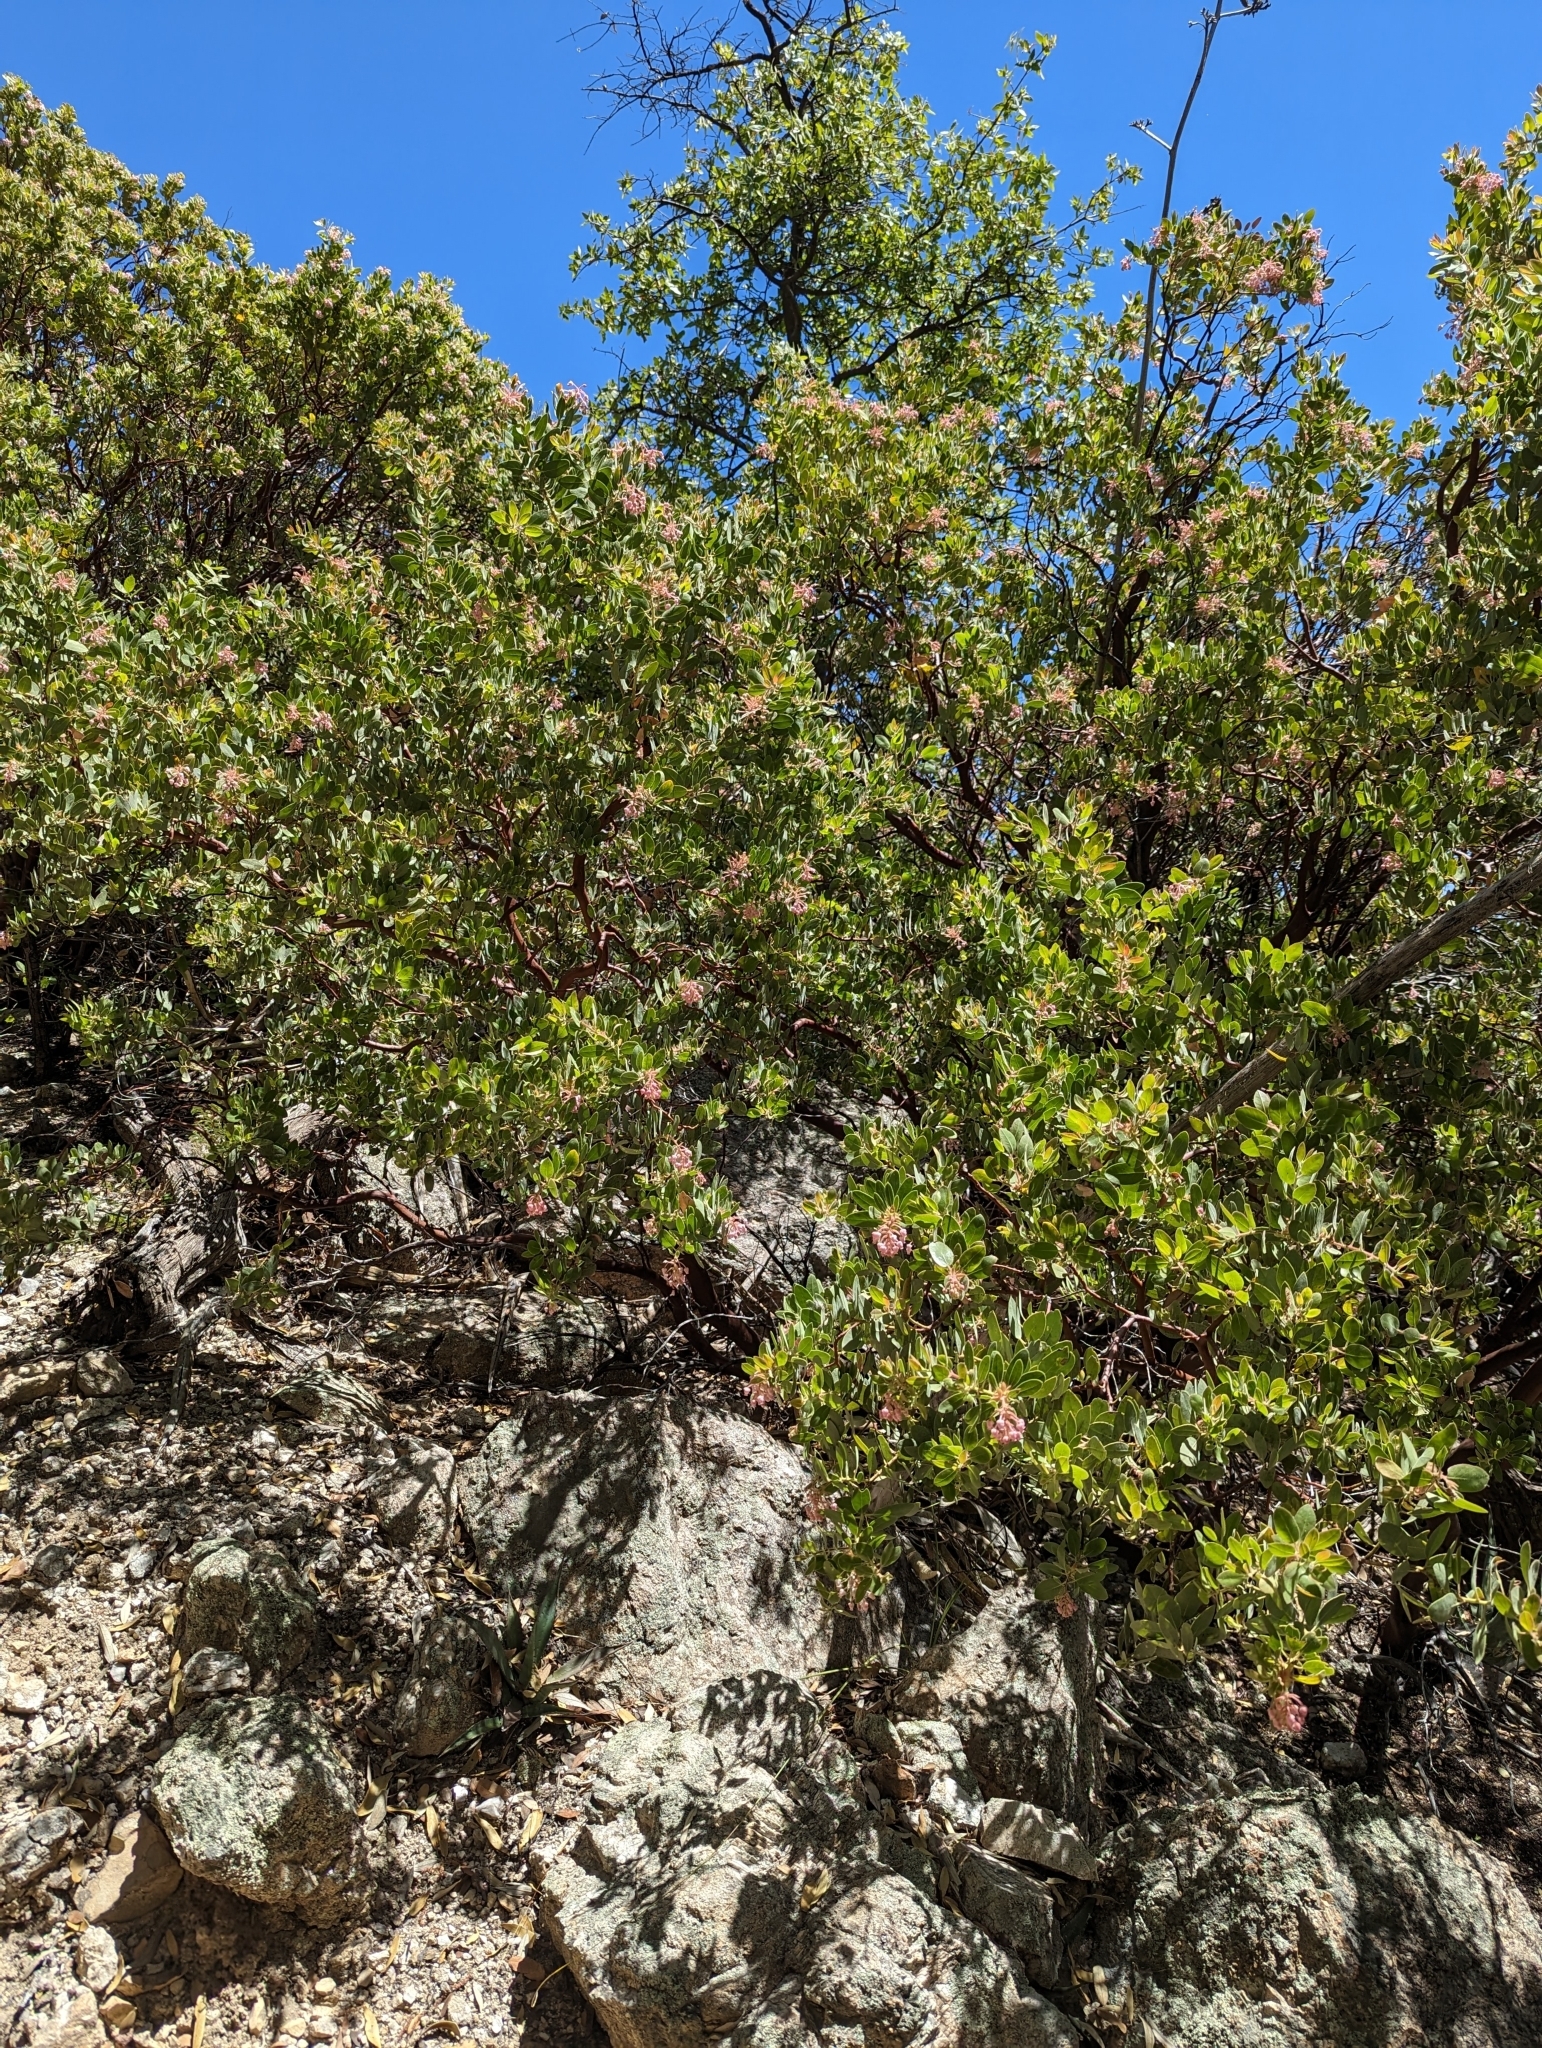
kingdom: Plantae
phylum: Tracheophyta
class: Magnoliopsida
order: Ericales
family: Ericaceae
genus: Arctostaphylos
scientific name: Arctostaphylos pringlei
